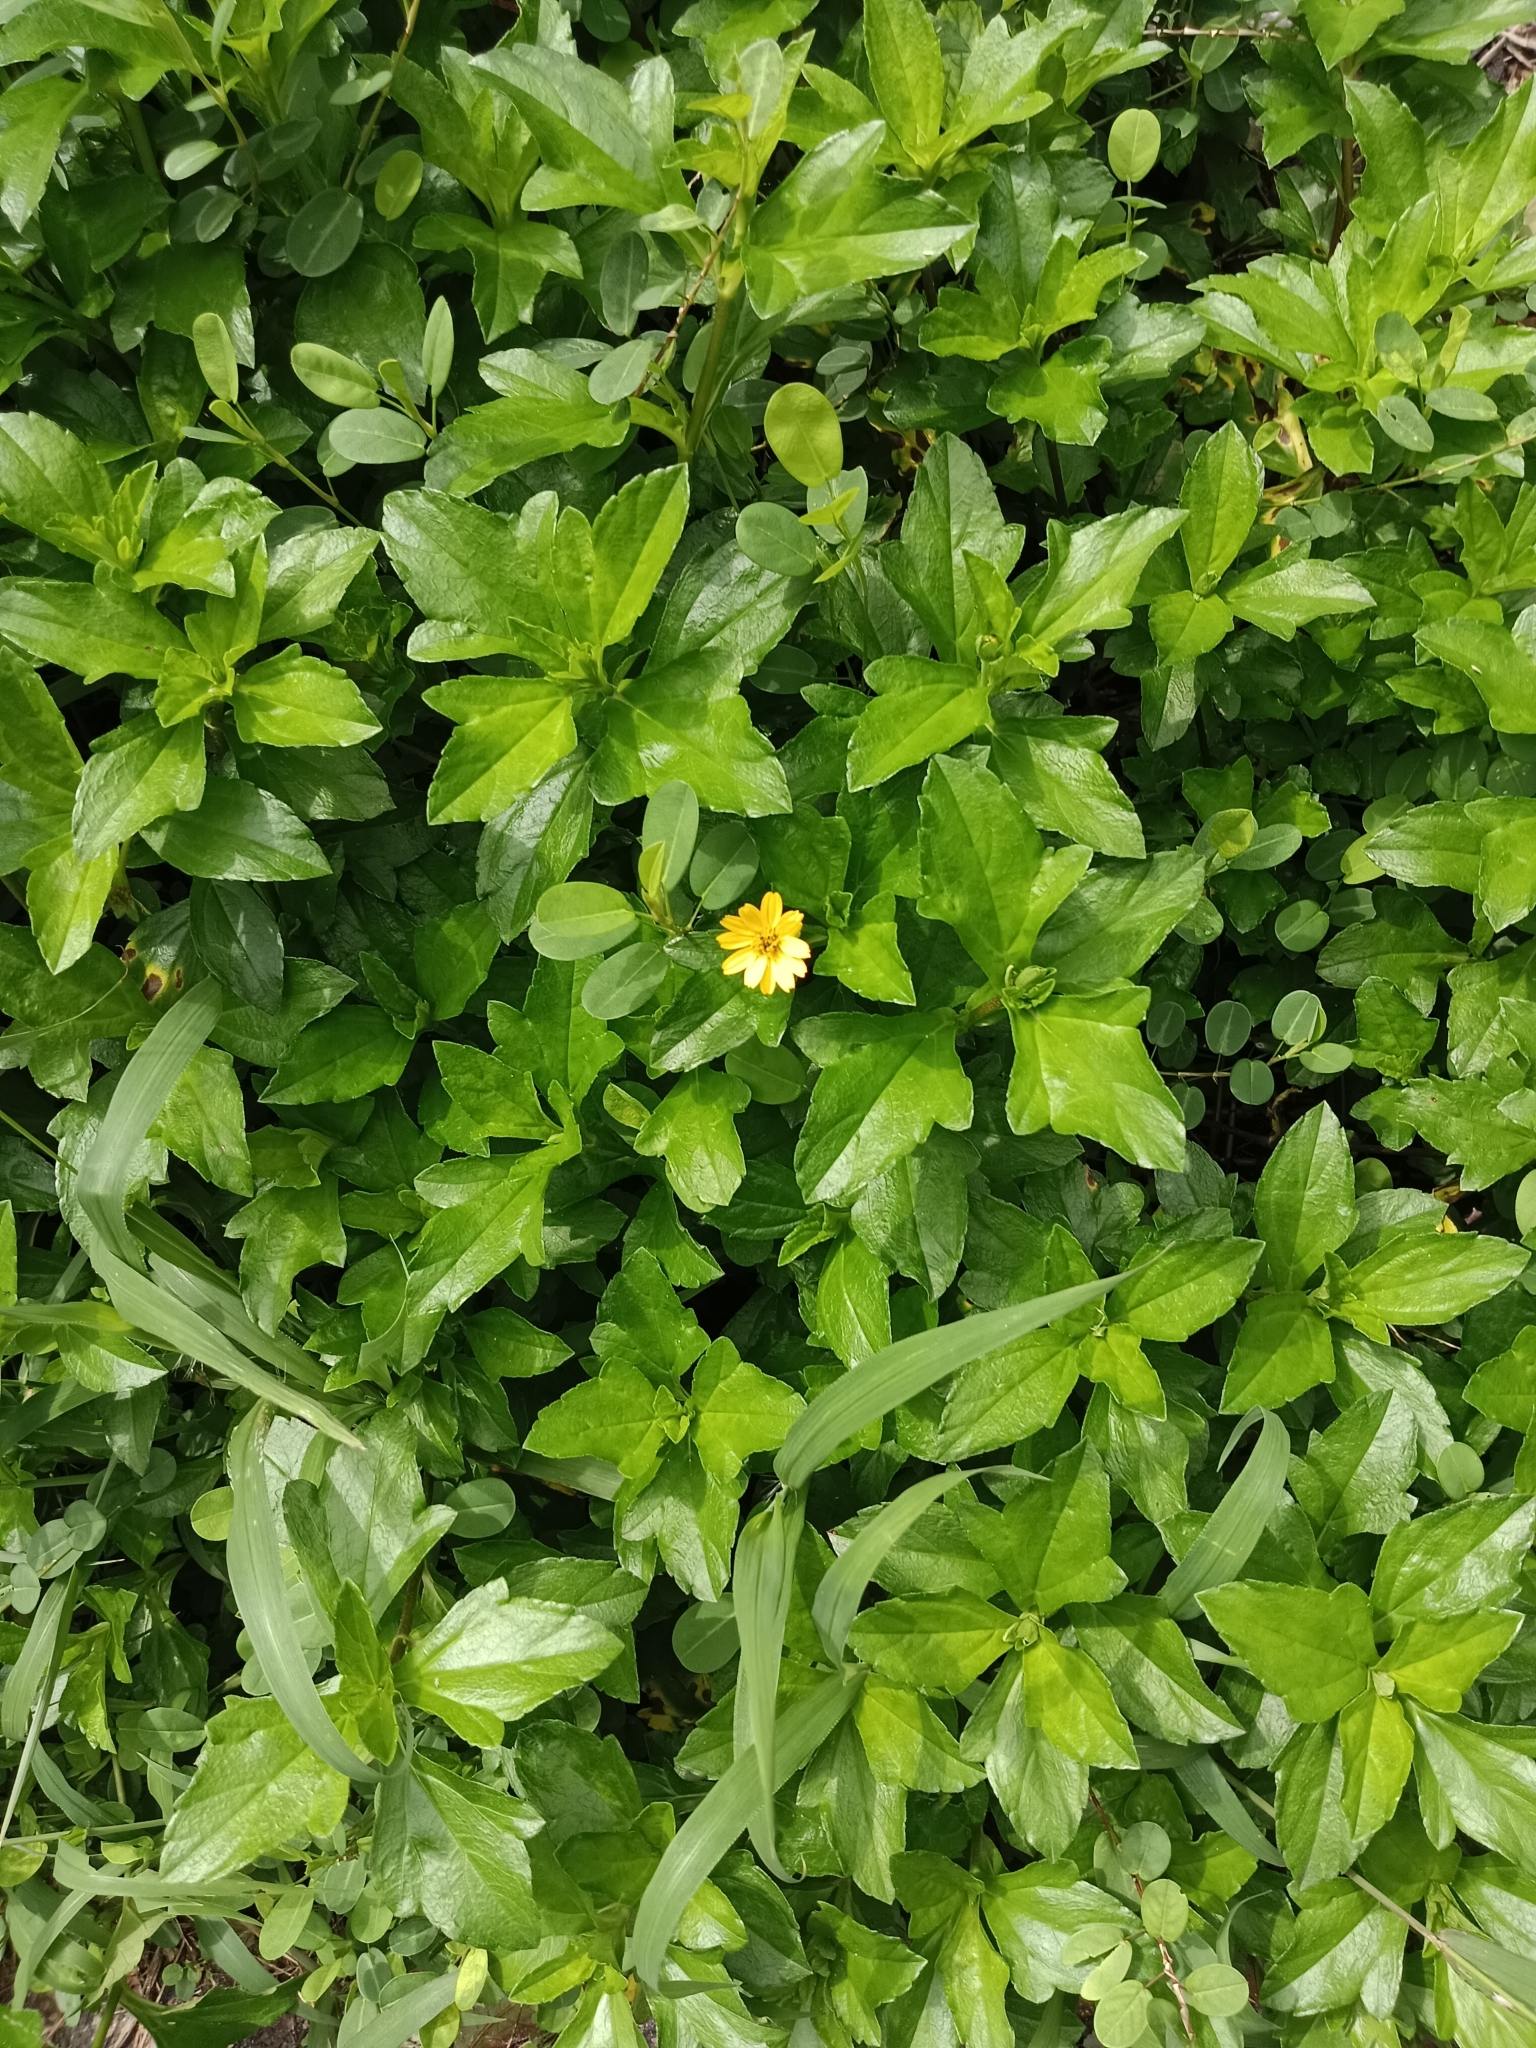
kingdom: Plantae
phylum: Tracheophyta
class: Magnoliopsida
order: Asterales
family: Asteraceae
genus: Sphagneticola
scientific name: Sphagneticola trilobata
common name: Bay biscayne creeping-oxeye
